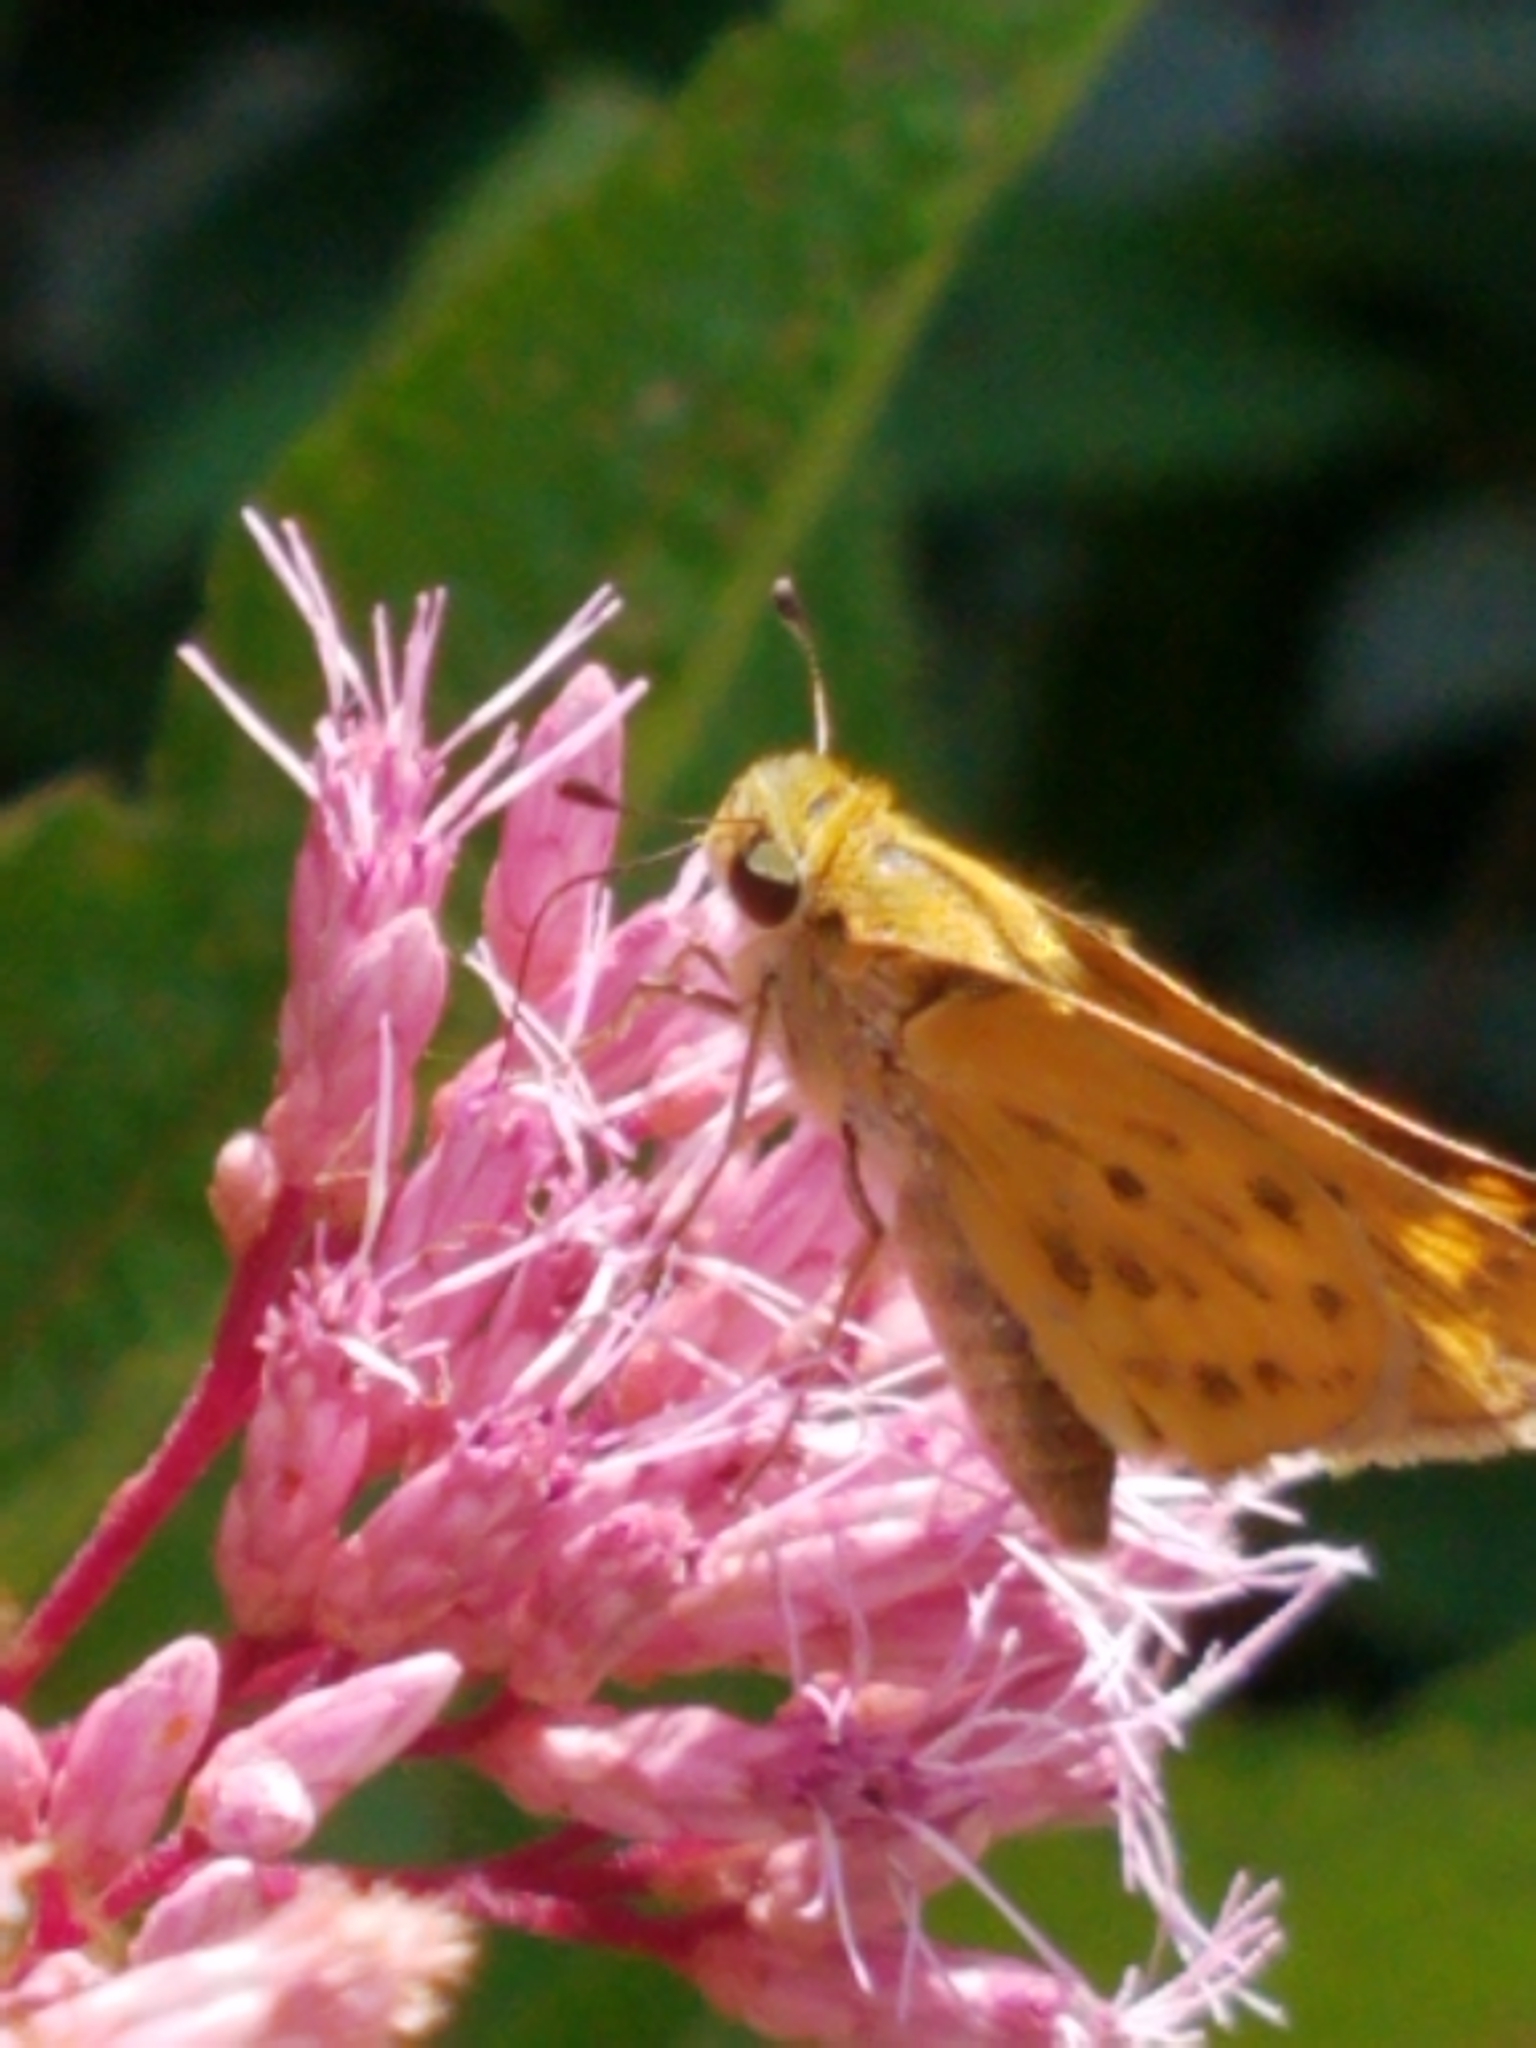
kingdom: Animalia
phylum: Arthropoda
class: Insecta
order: Lepidoptera
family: Hesperiidae
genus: Hylephila
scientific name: Hylephila phyleus
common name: Fiery skipper
